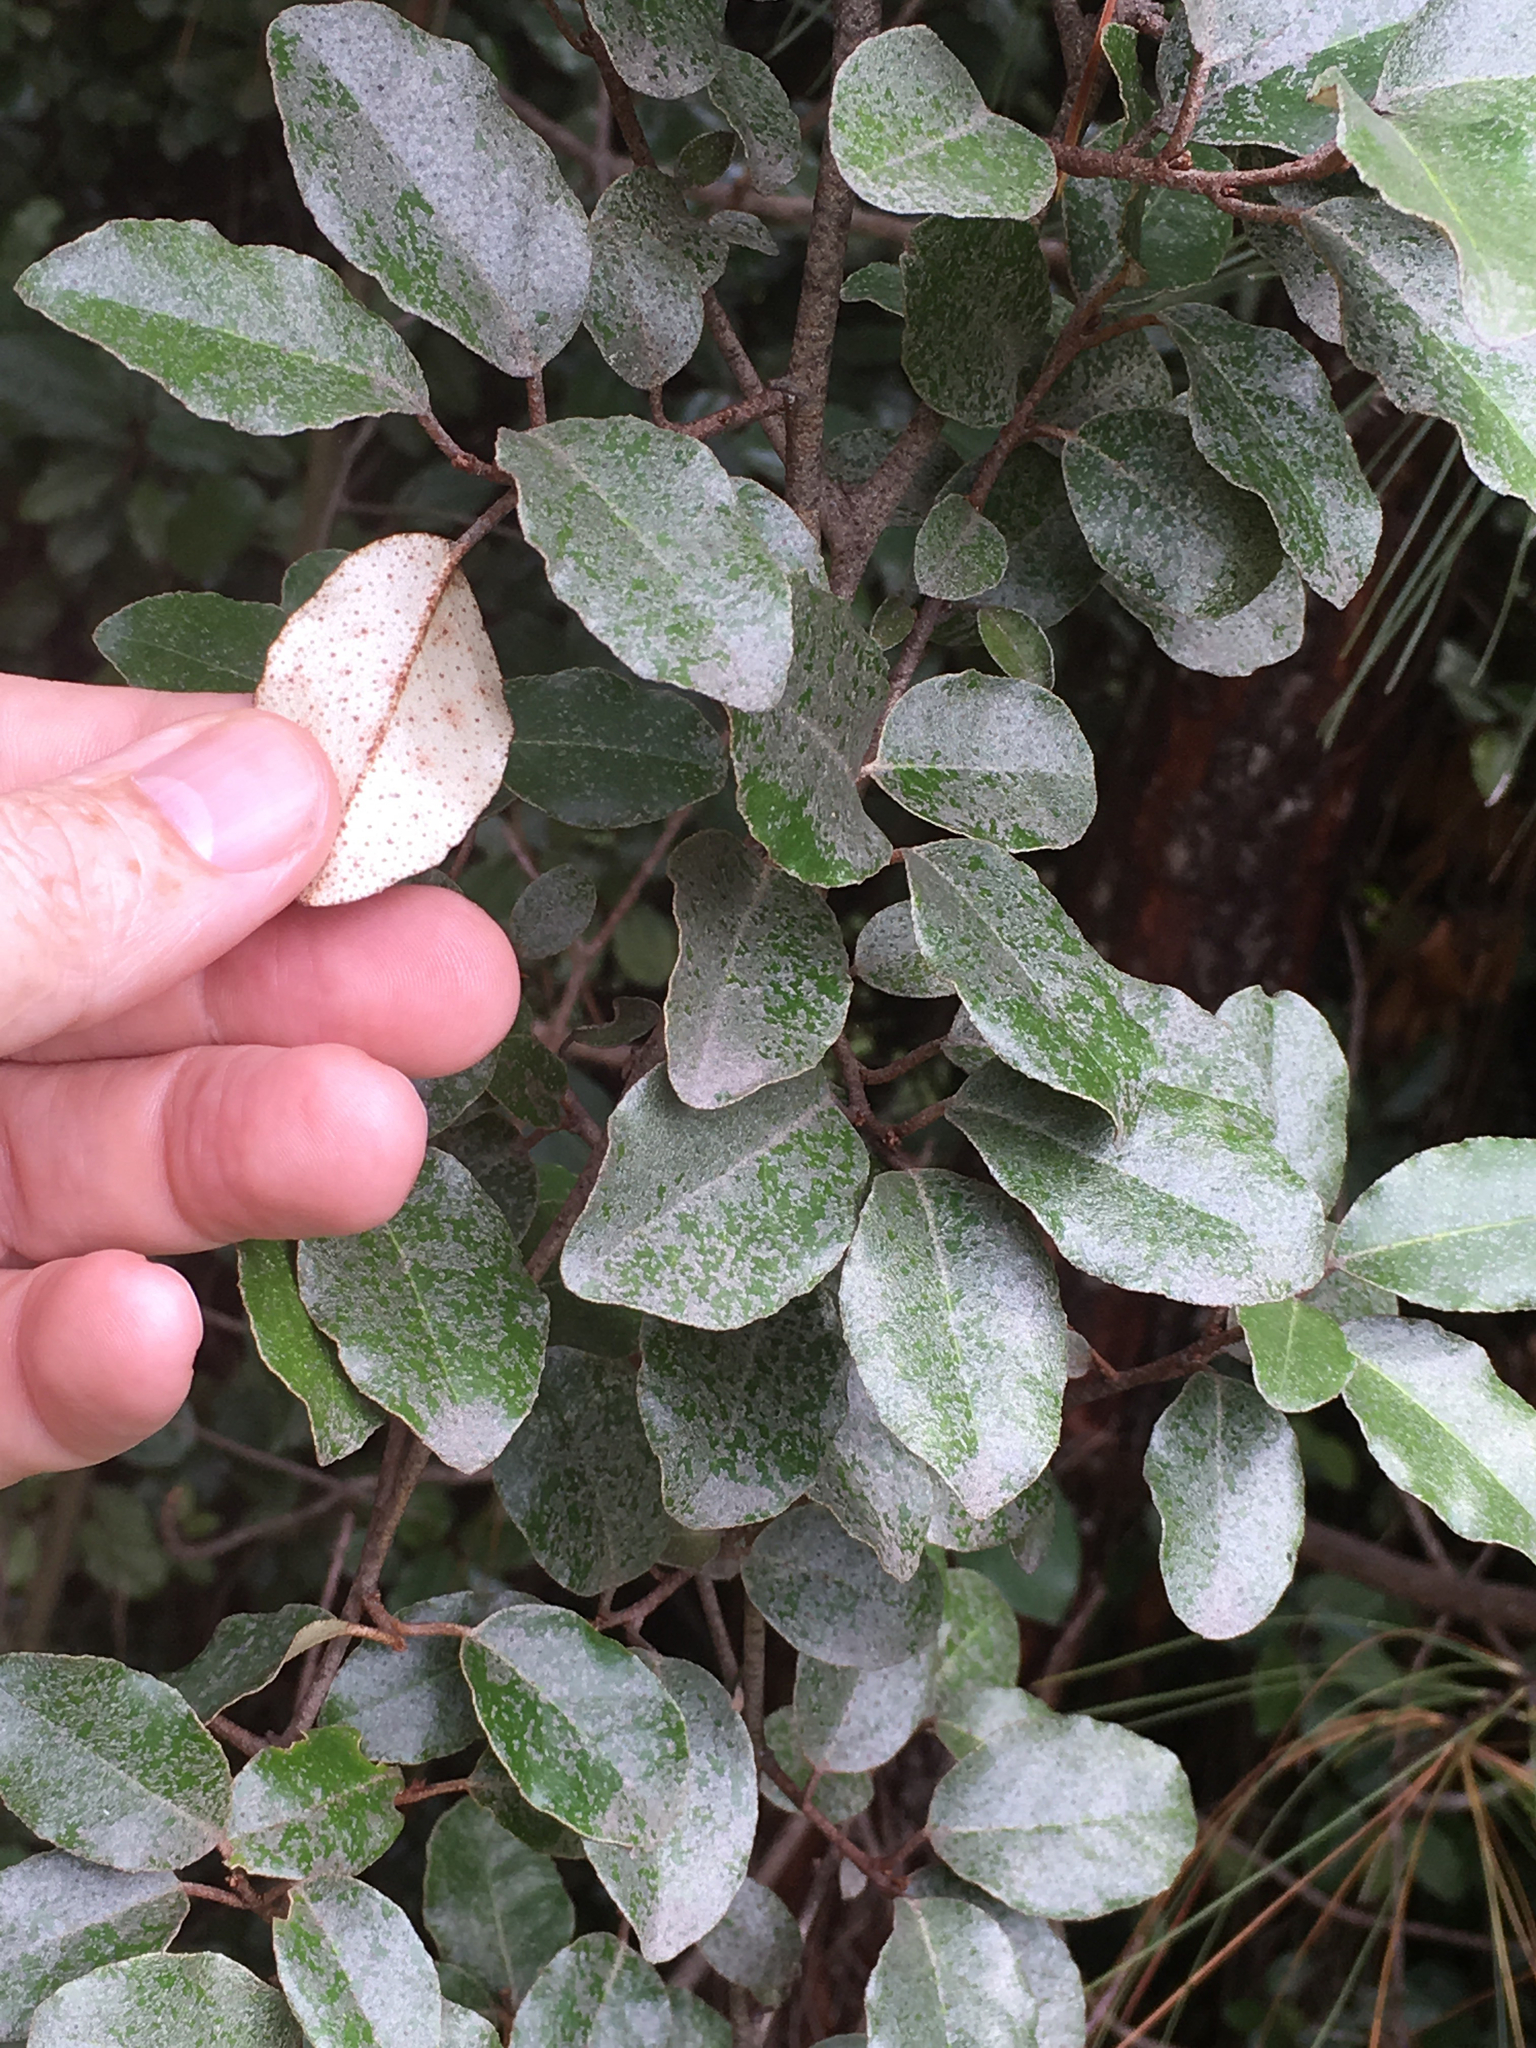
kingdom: Plantae
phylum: Tracheophyta
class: Magnoliopsida
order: Rosales
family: Elaeagnaceae
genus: Elaeagnus
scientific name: Elaeagnus pungens
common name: Spiny oleaster
